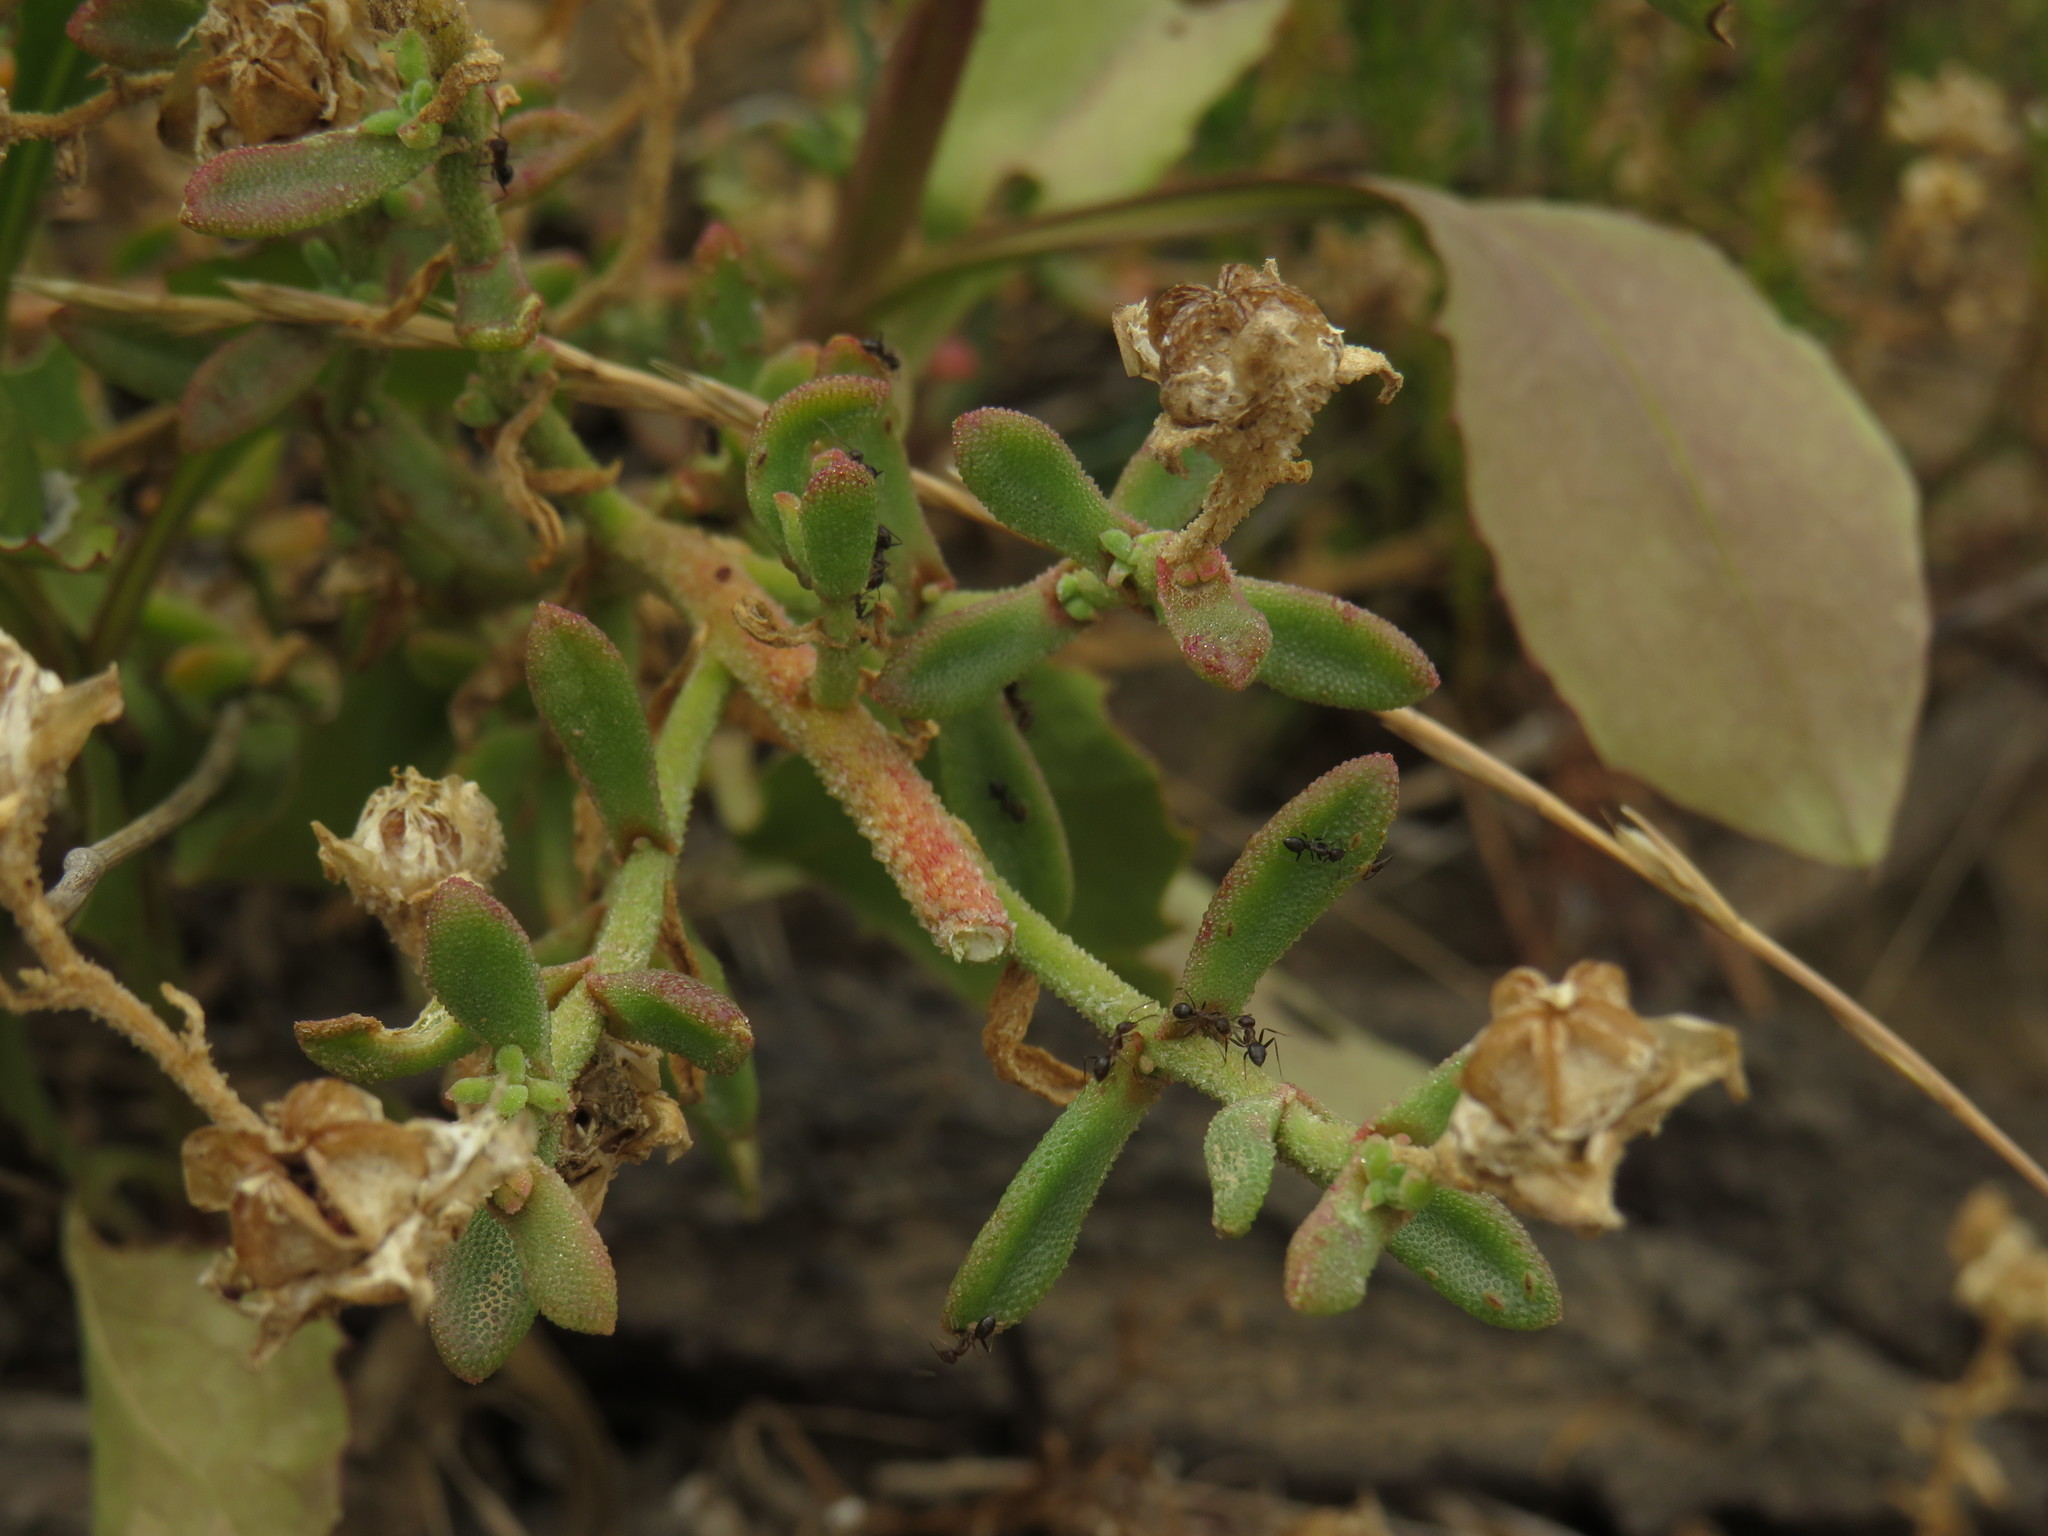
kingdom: Animalia
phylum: Arthropoda
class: Insecta
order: Hymenoptera
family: Formicidae
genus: Anoplolepis
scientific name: Anoplolepis steingroeveri
